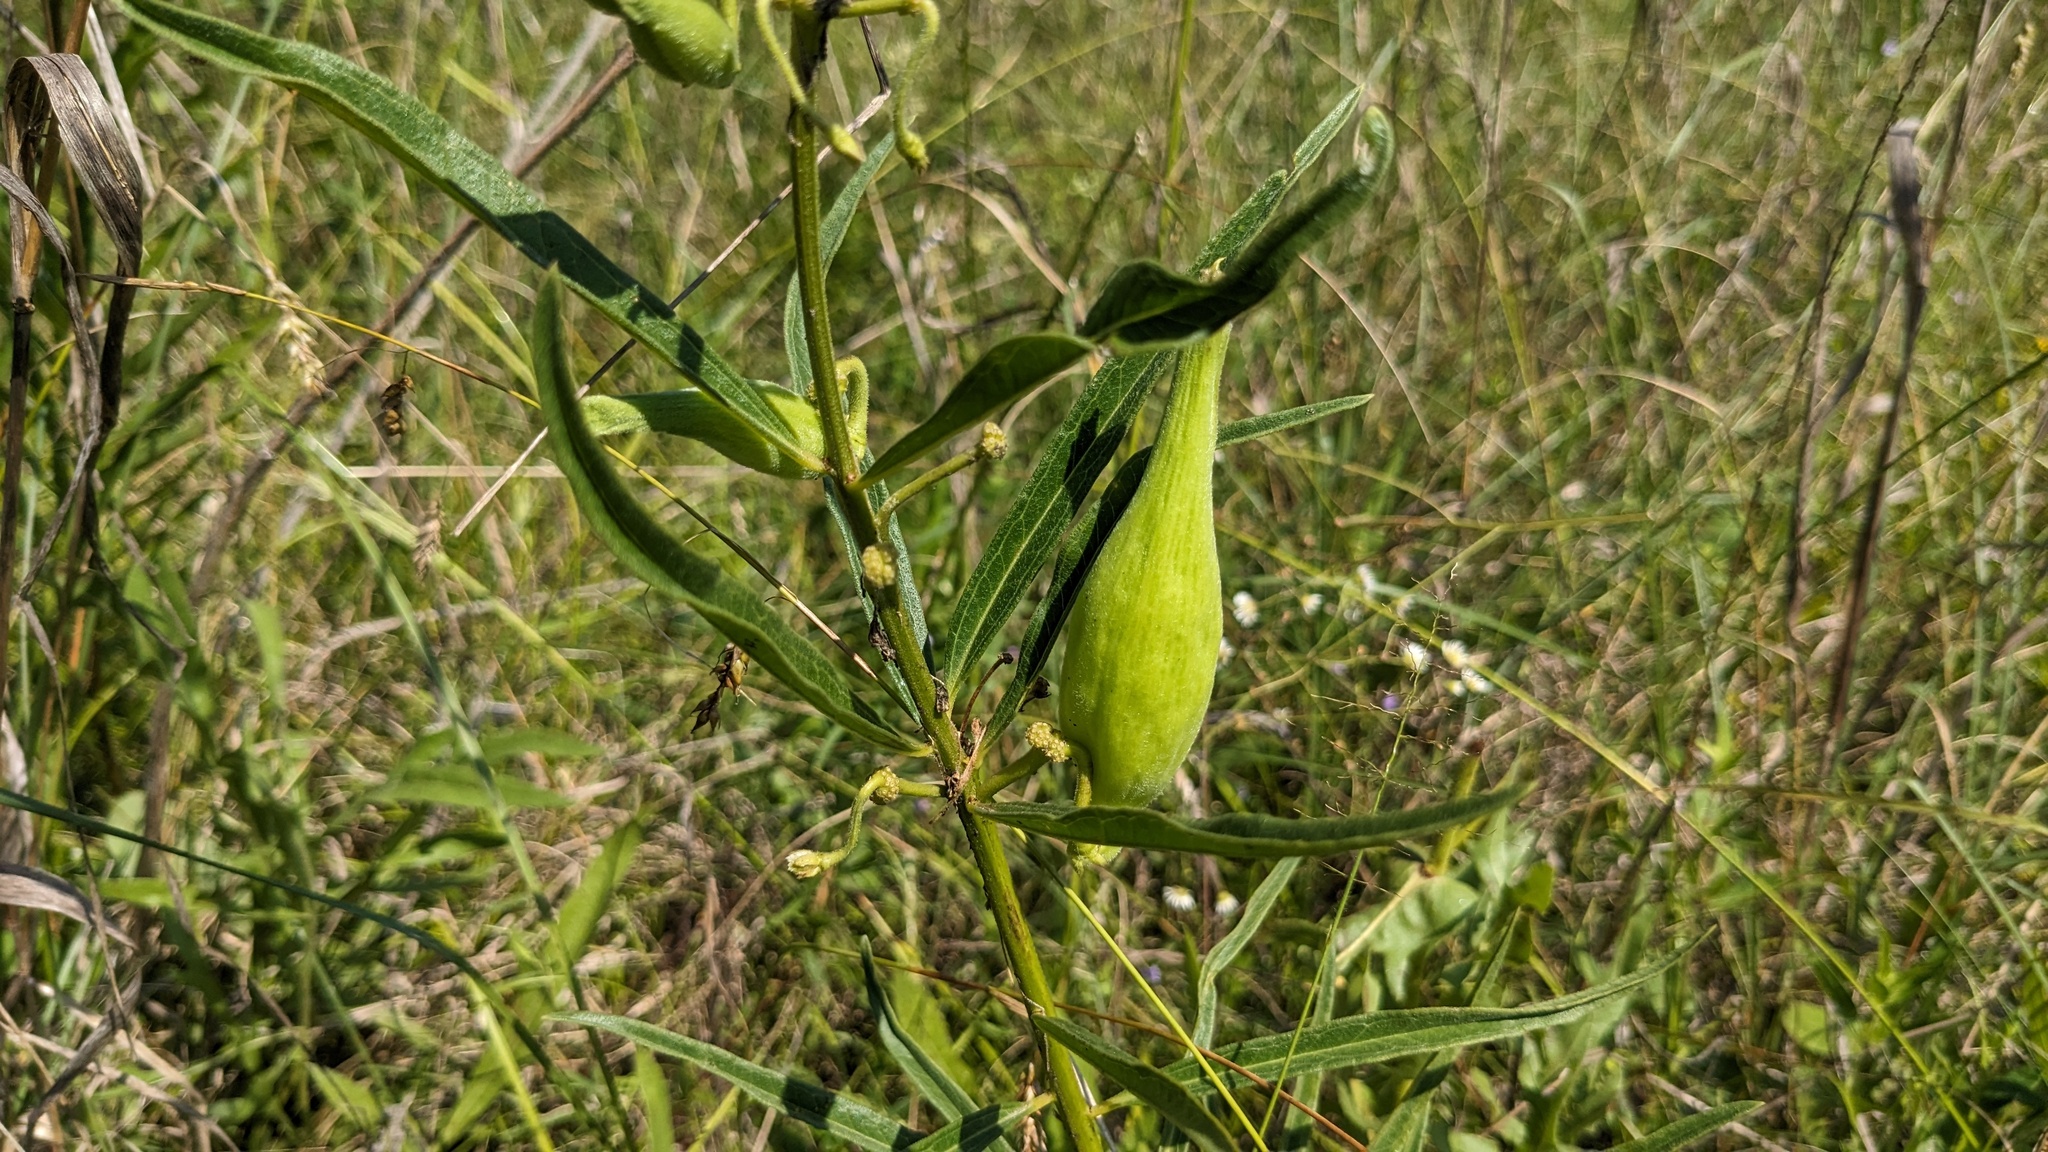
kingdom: Plantae
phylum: Tracheophyta
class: Magnoliopsida
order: Gentianales
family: Apocynaceae
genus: Asclepias
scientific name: Asclepias hirtella
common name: Prairie milkweed
